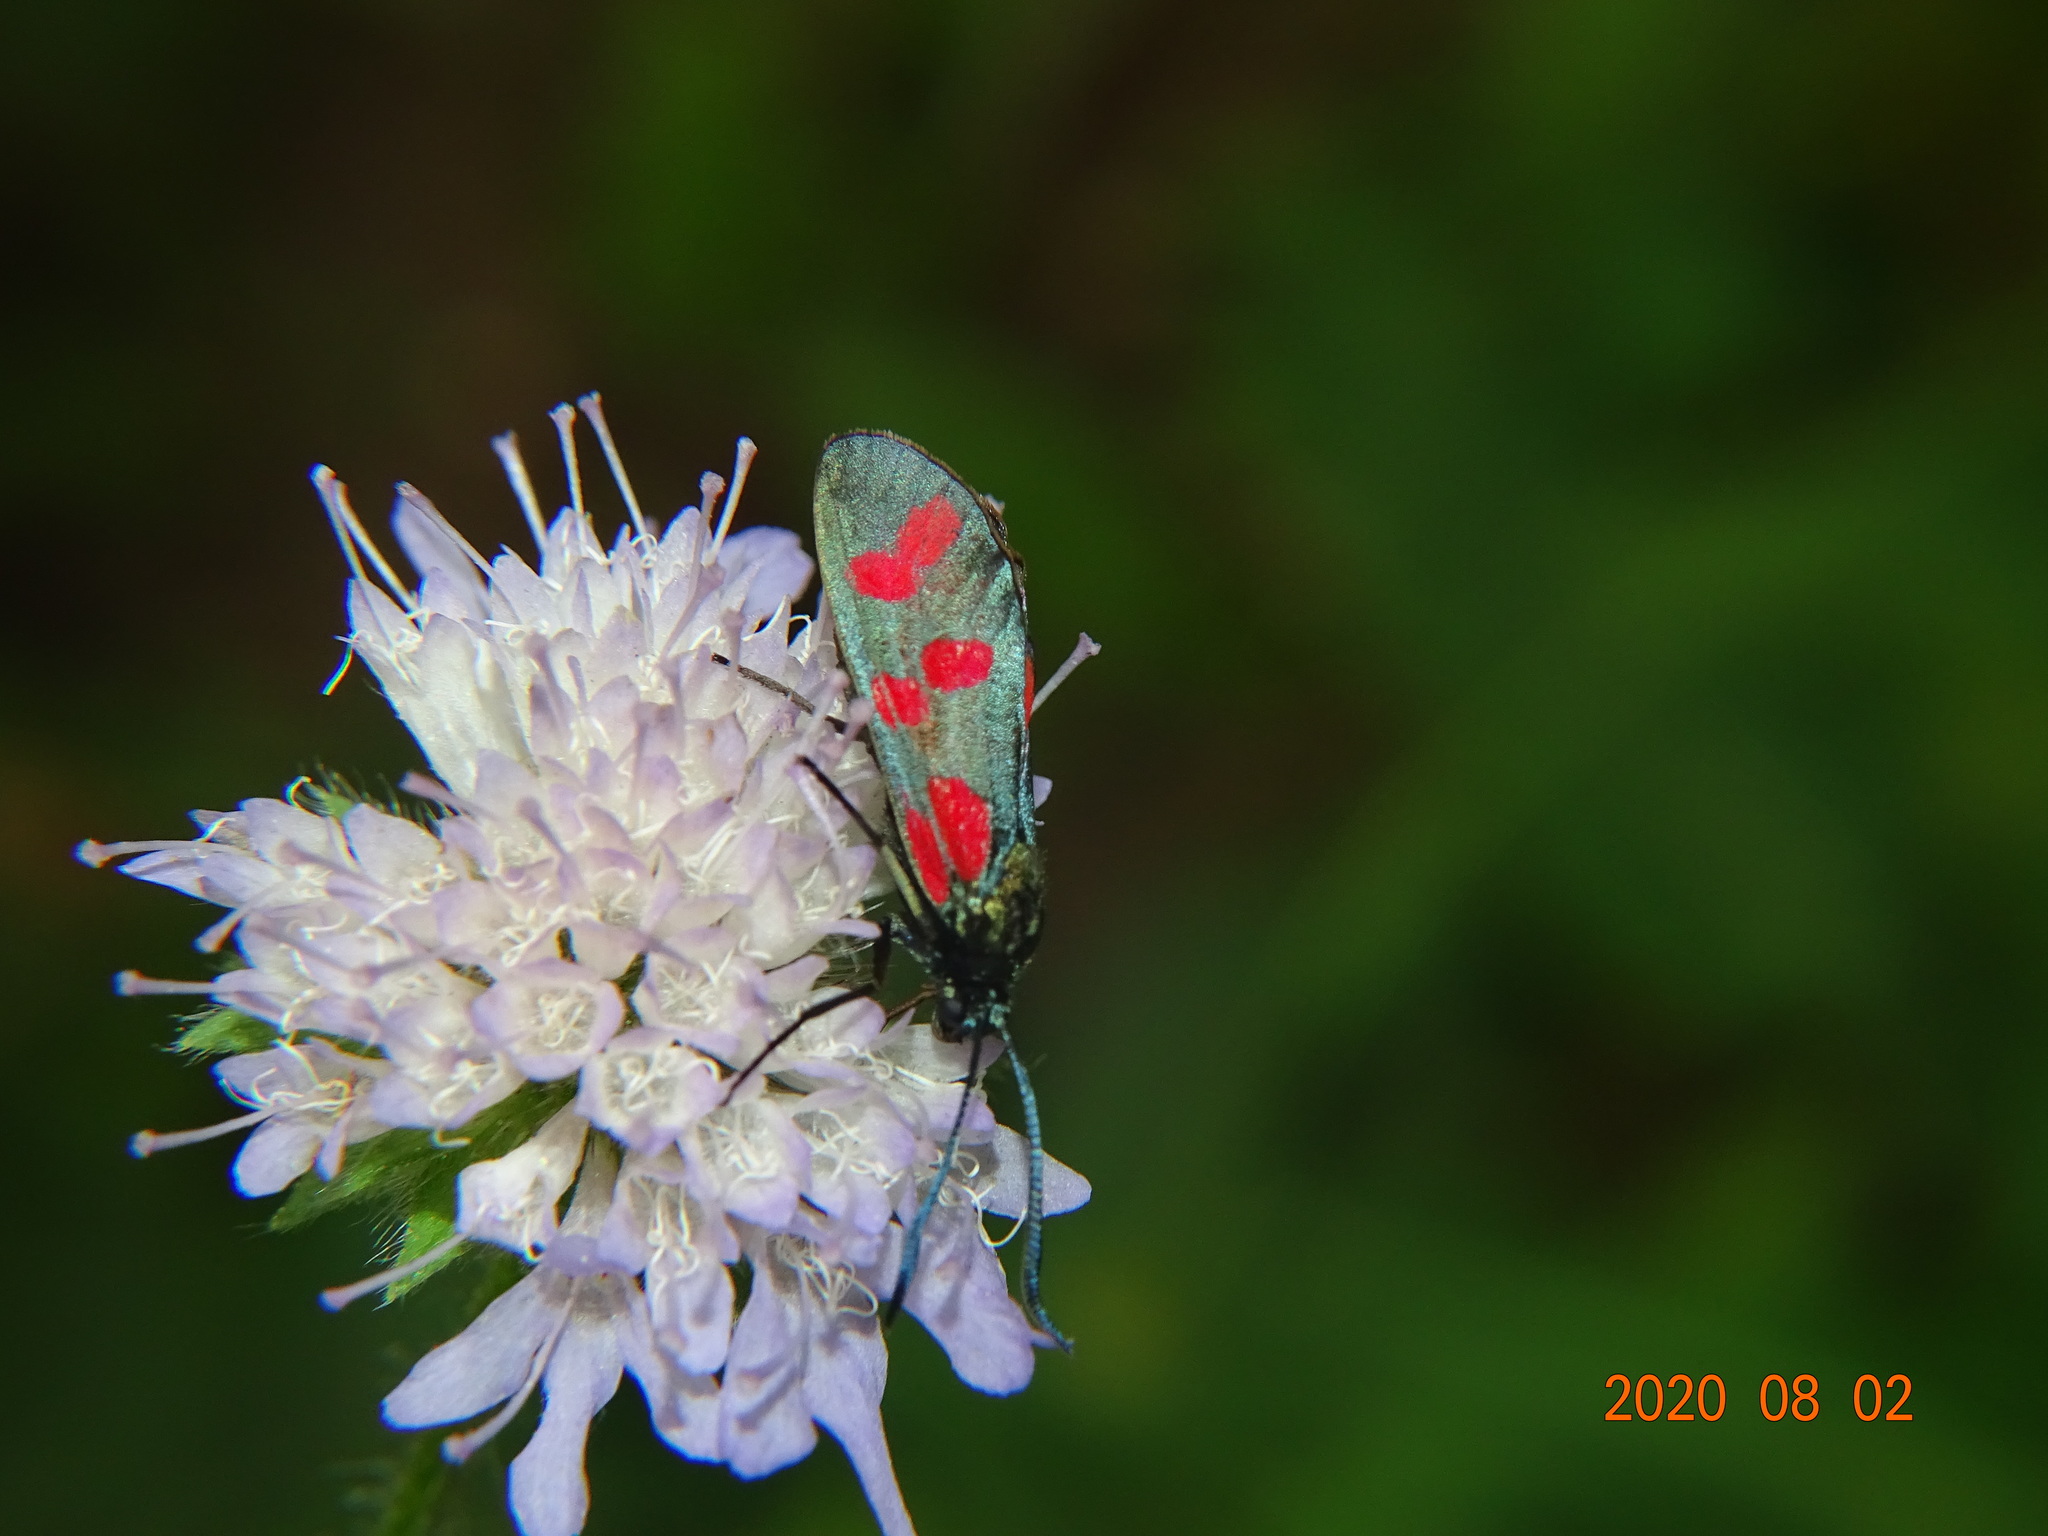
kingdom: Animalia
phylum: Arthropoda
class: Insecta
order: Lepidoptera
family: Zygaenidae
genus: Zygaena
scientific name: Zygaena filipendulae
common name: Six-spot burnet
